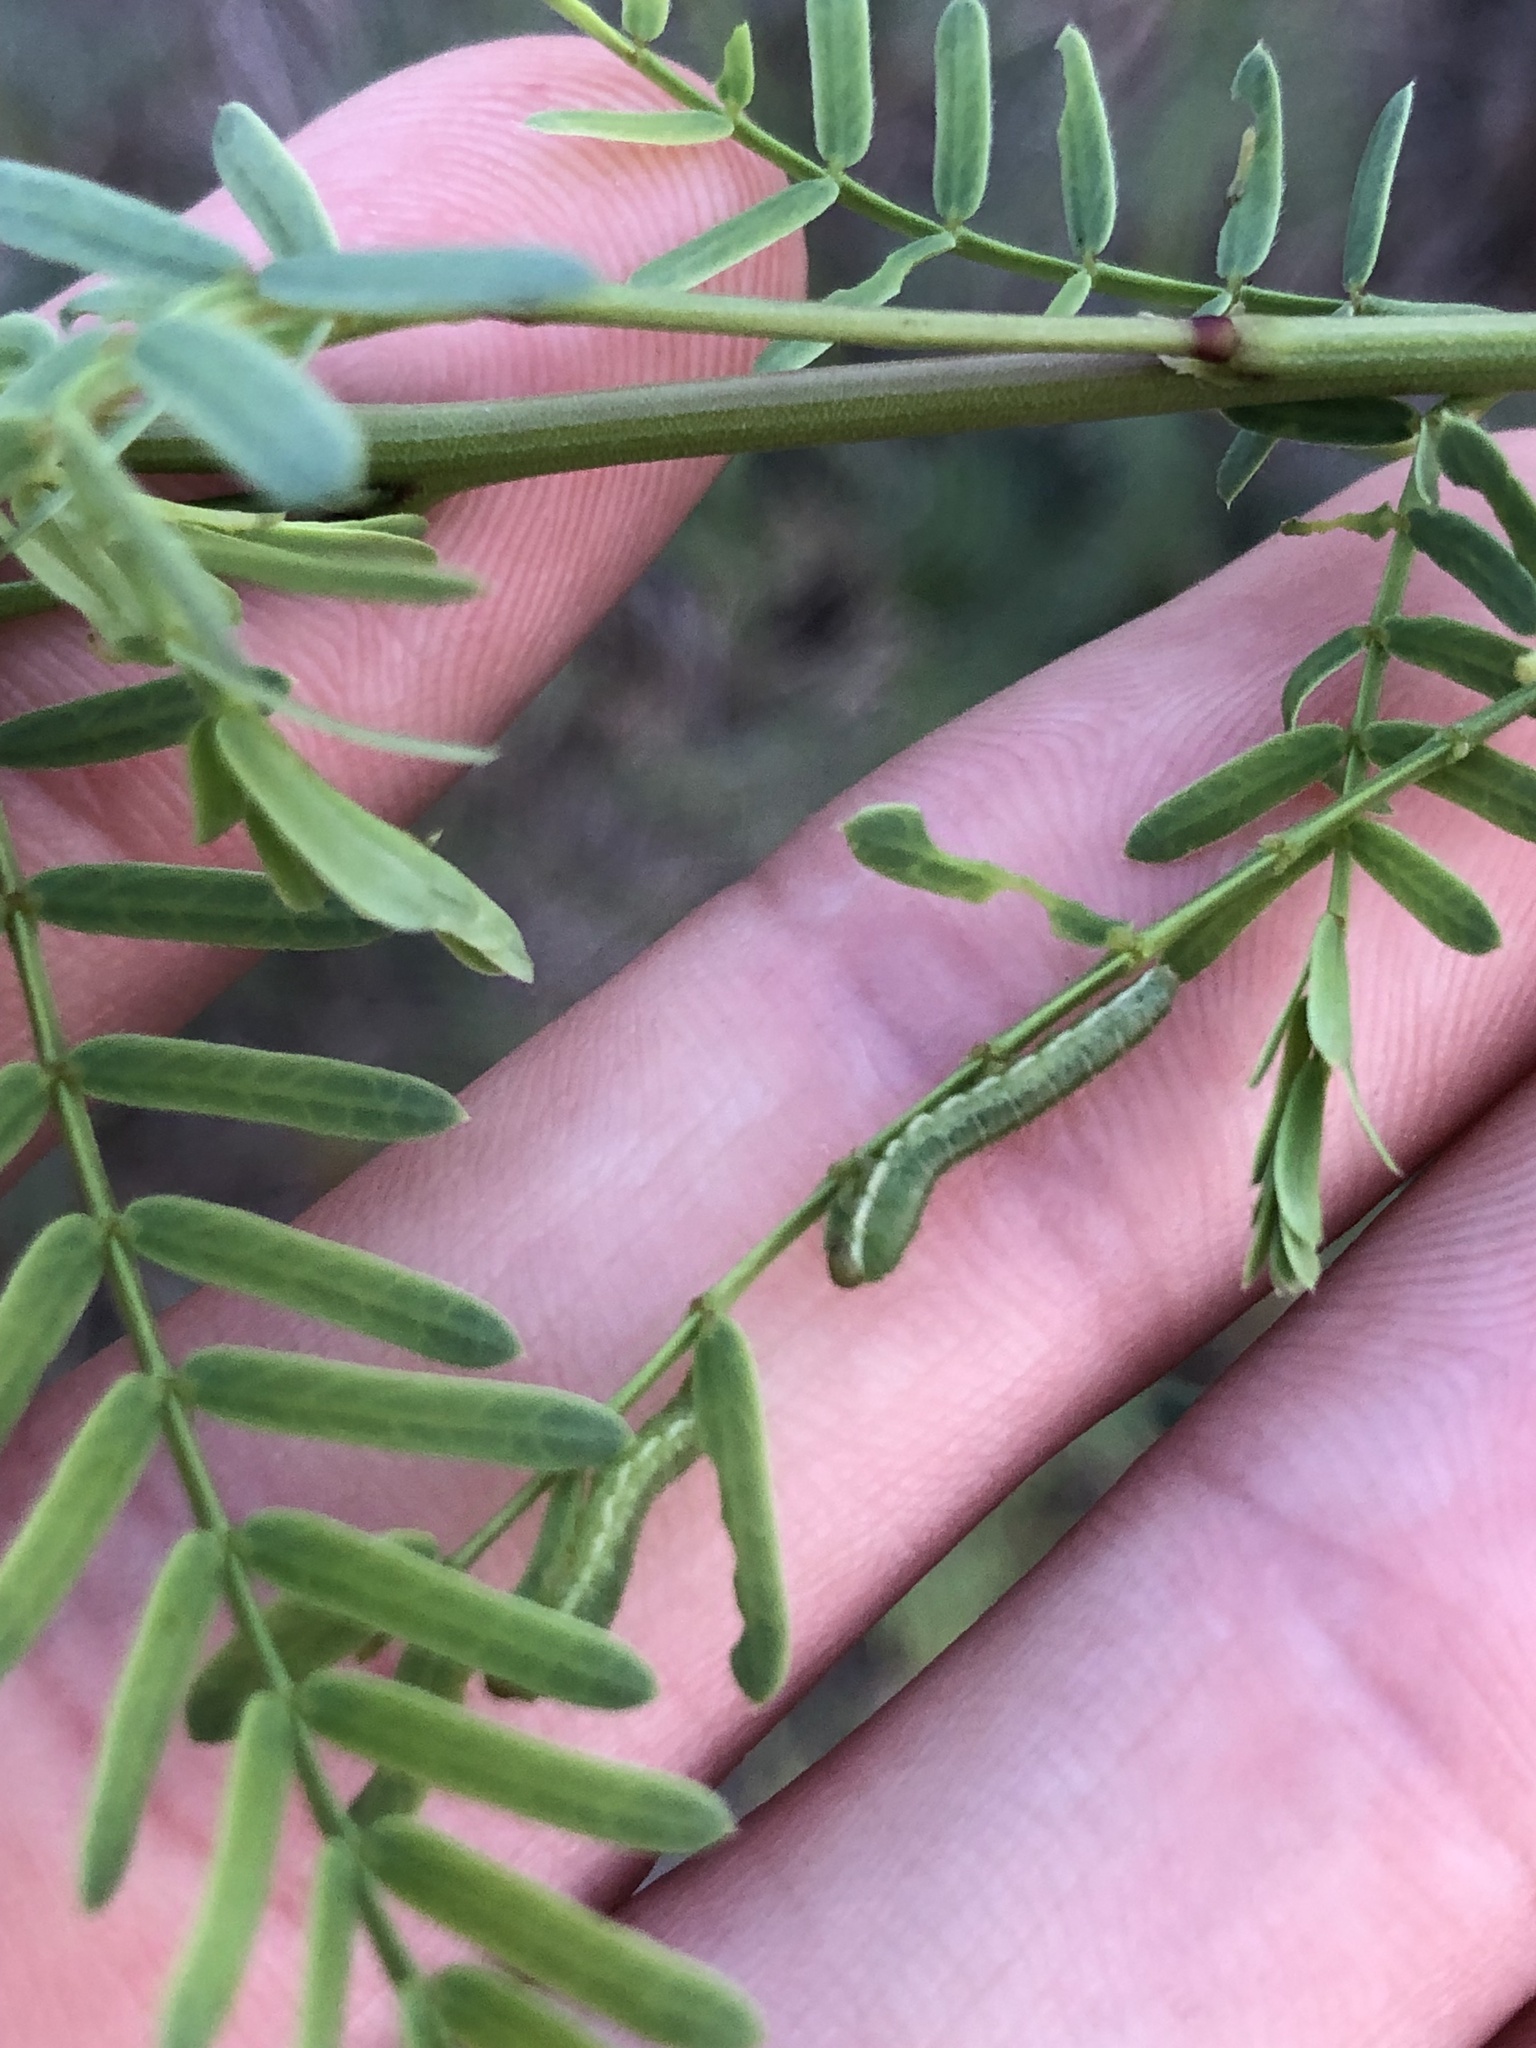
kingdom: Plantae
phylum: Tracheophyta
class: Magnoliopsida
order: Fabales
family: Fabaceae
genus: Prosopis
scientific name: Prosopis glandulosa
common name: Honey mesquite
